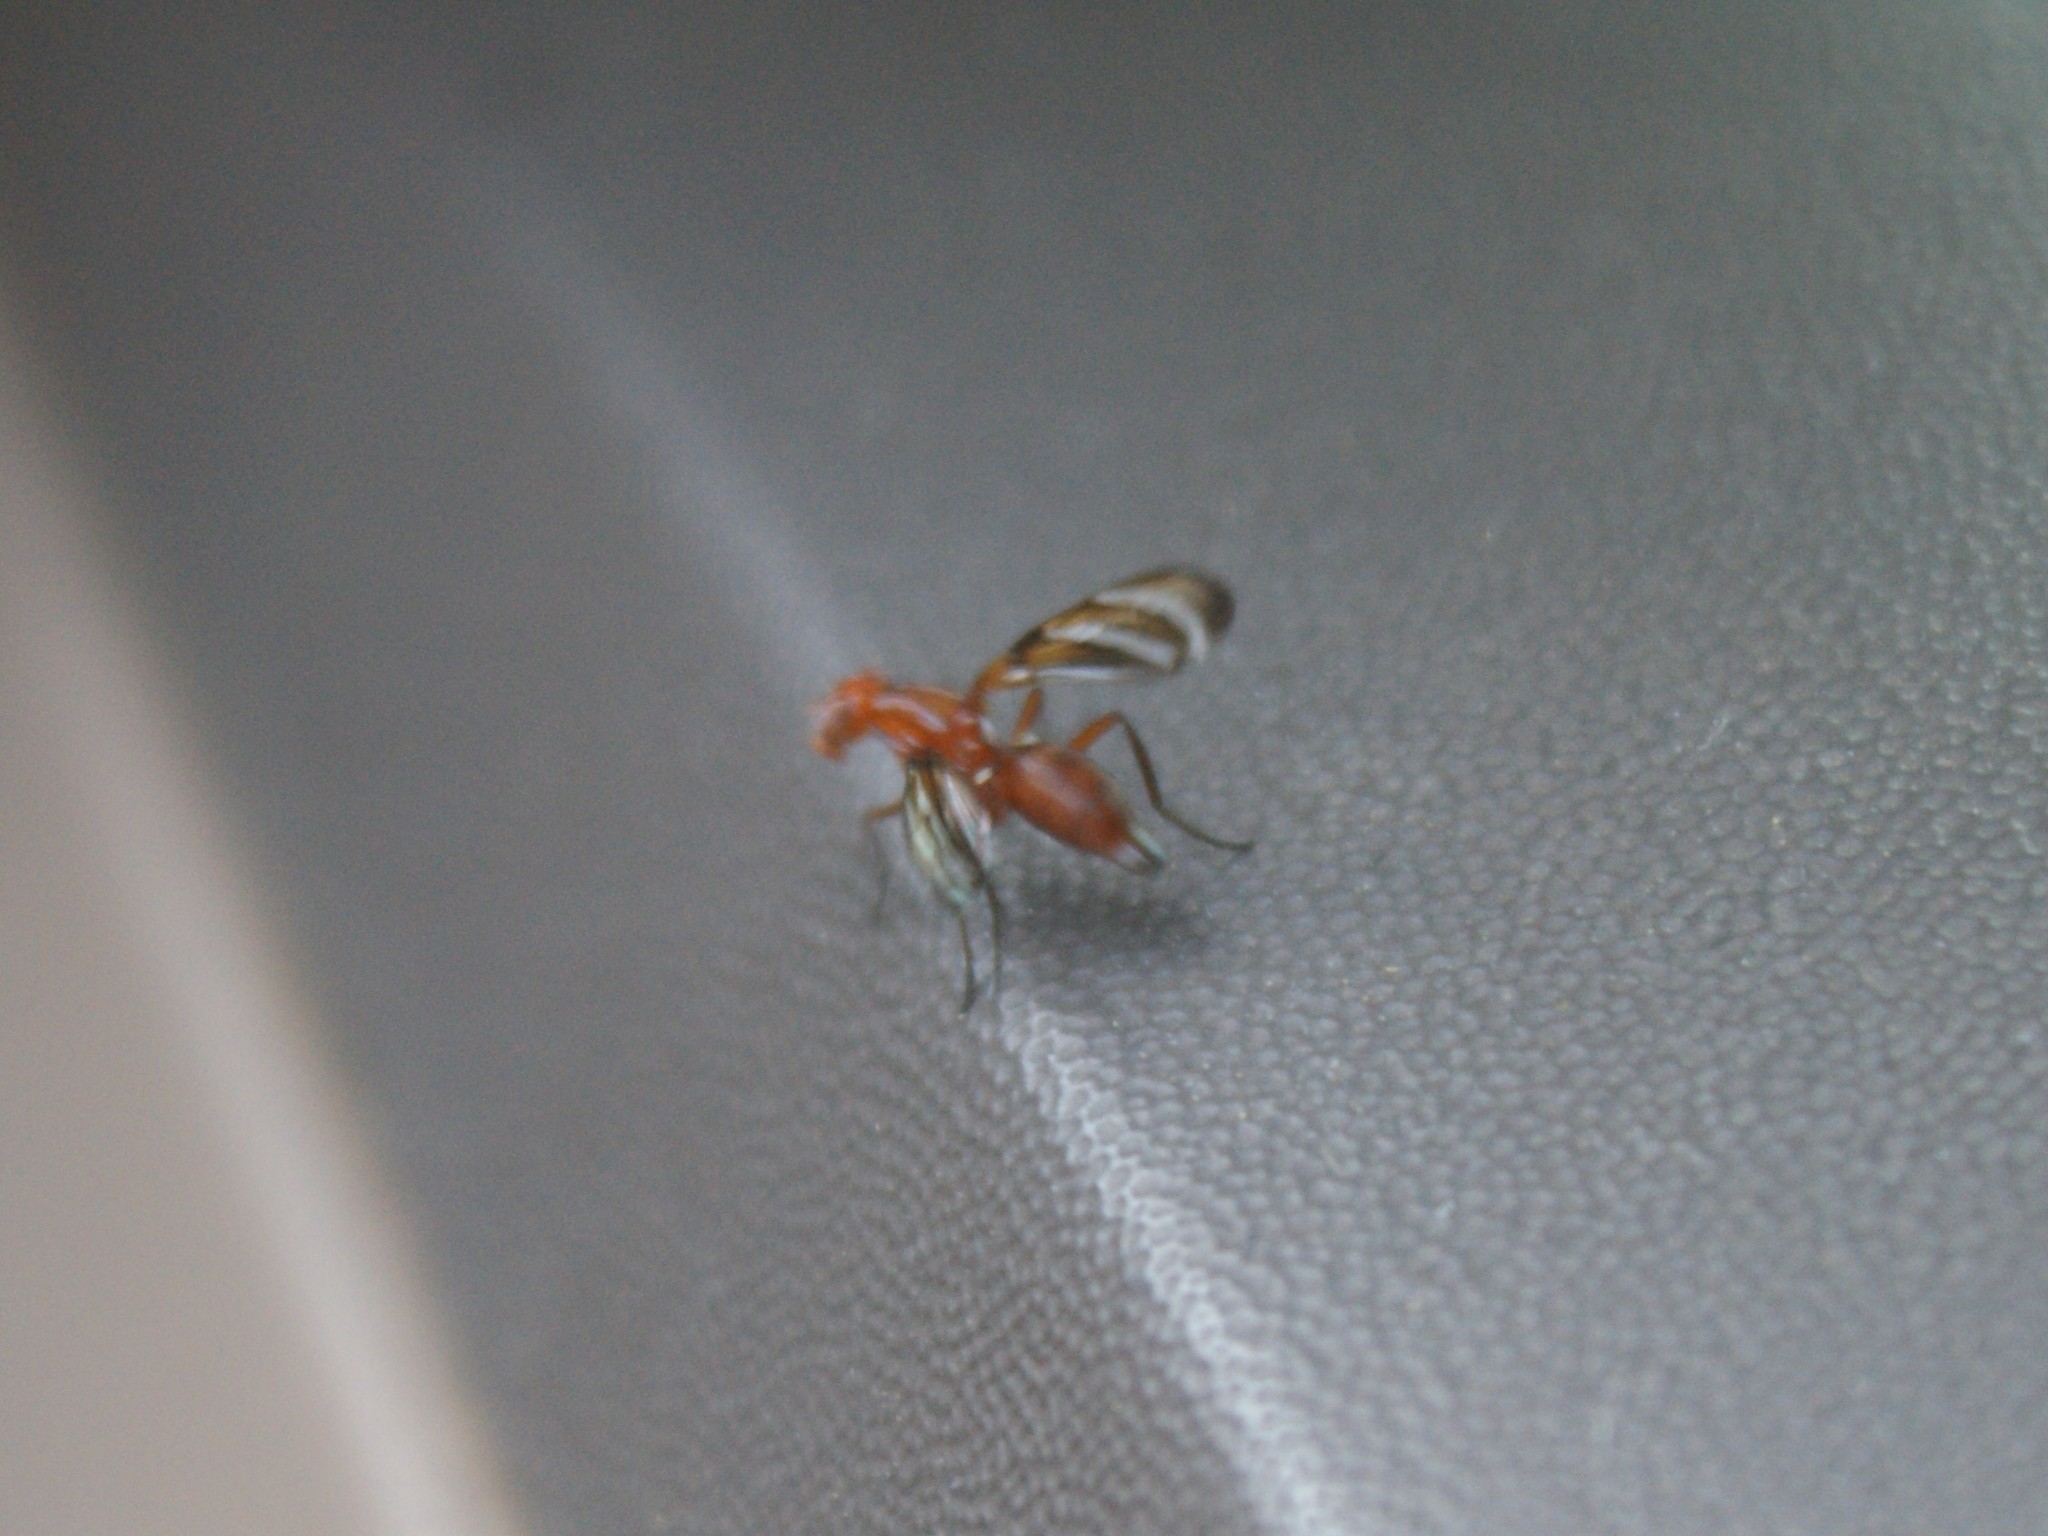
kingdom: Animalia
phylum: Arthropoda
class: Insecta
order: Diptera
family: Ulidiidae
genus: Tritoxa
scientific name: Tritoxa incurva
